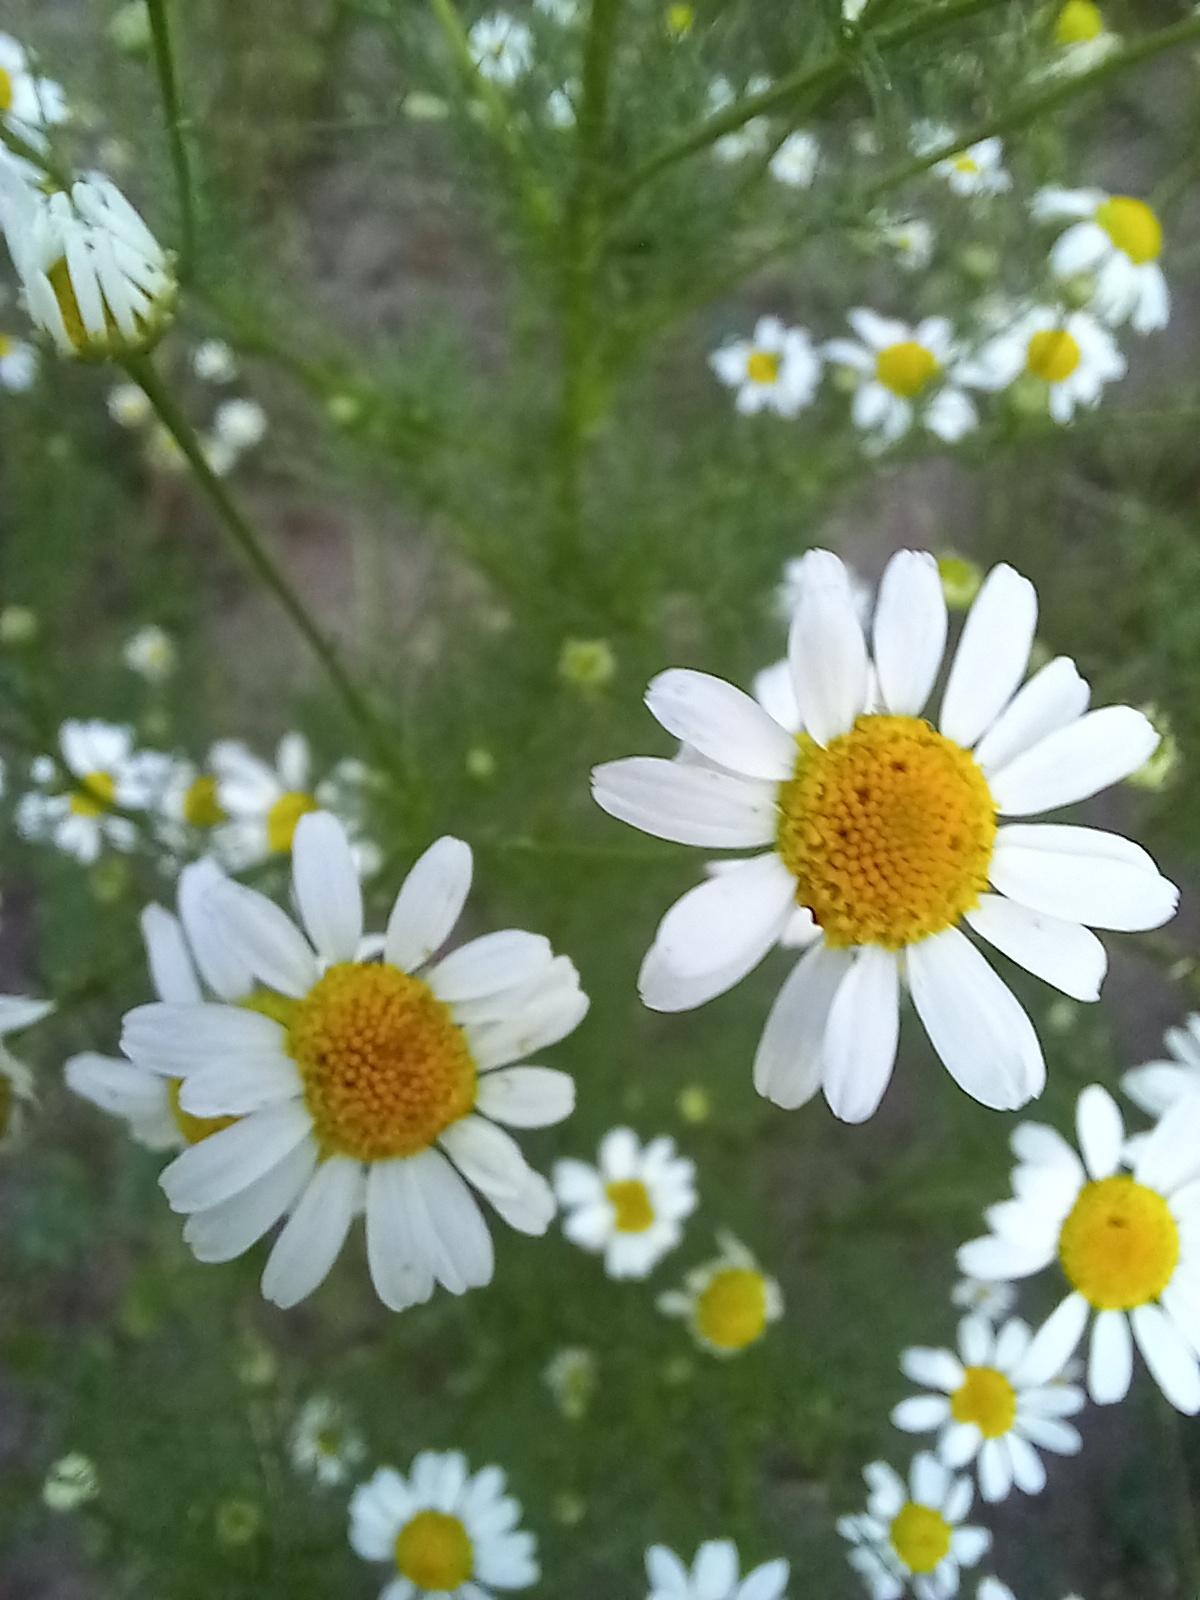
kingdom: Plantae
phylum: Tracheophyta
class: Magnoliopsida
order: Asterales
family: Asteraceae
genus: Tripleurospermum
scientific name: Tripleurospermum inodorum
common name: Scentless mayweed
